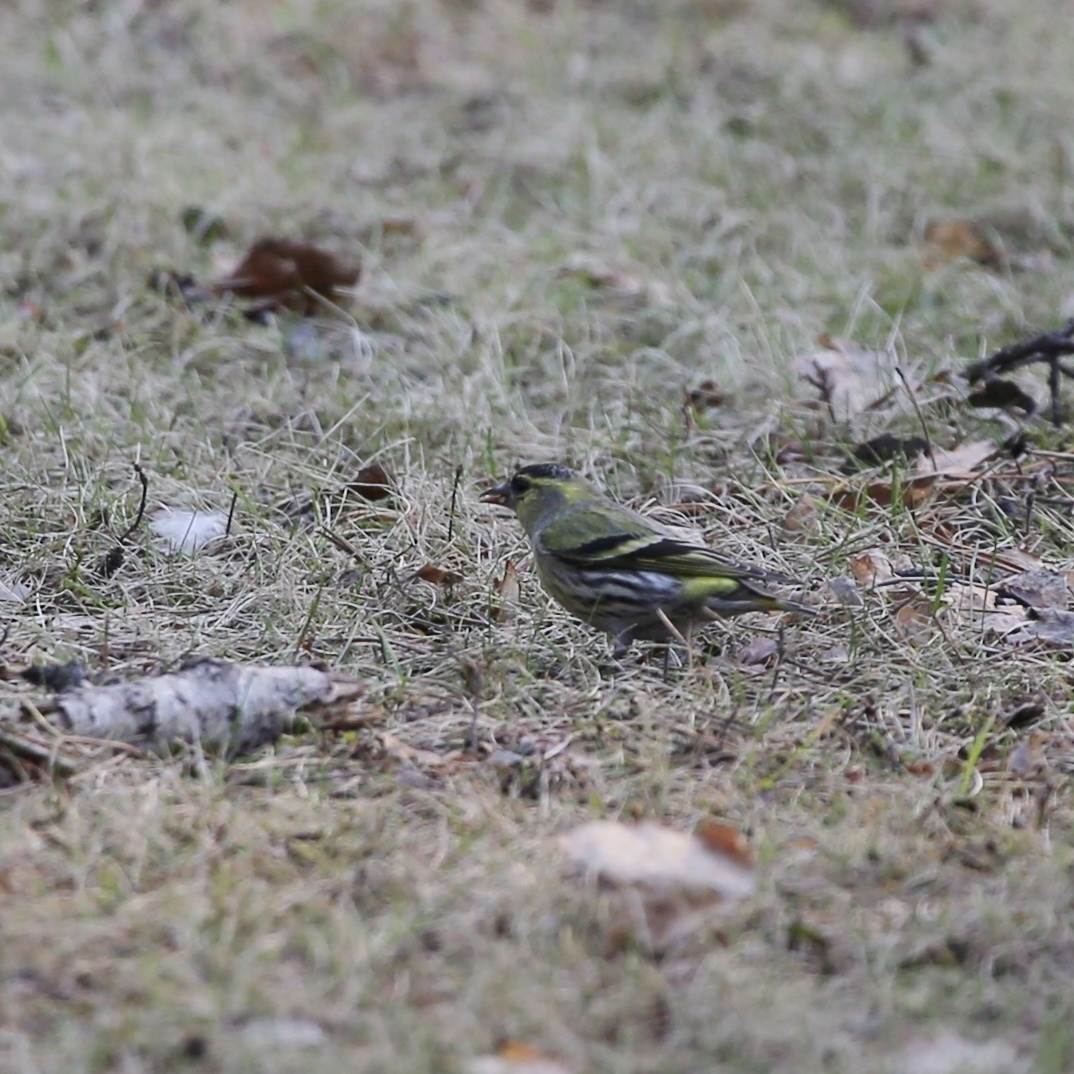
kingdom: Animalia
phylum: Chordata
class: Aves
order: Passeriformes
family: Fringillidae
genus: Spinus
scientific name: Spinus spinus
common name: Eurasian siskin
